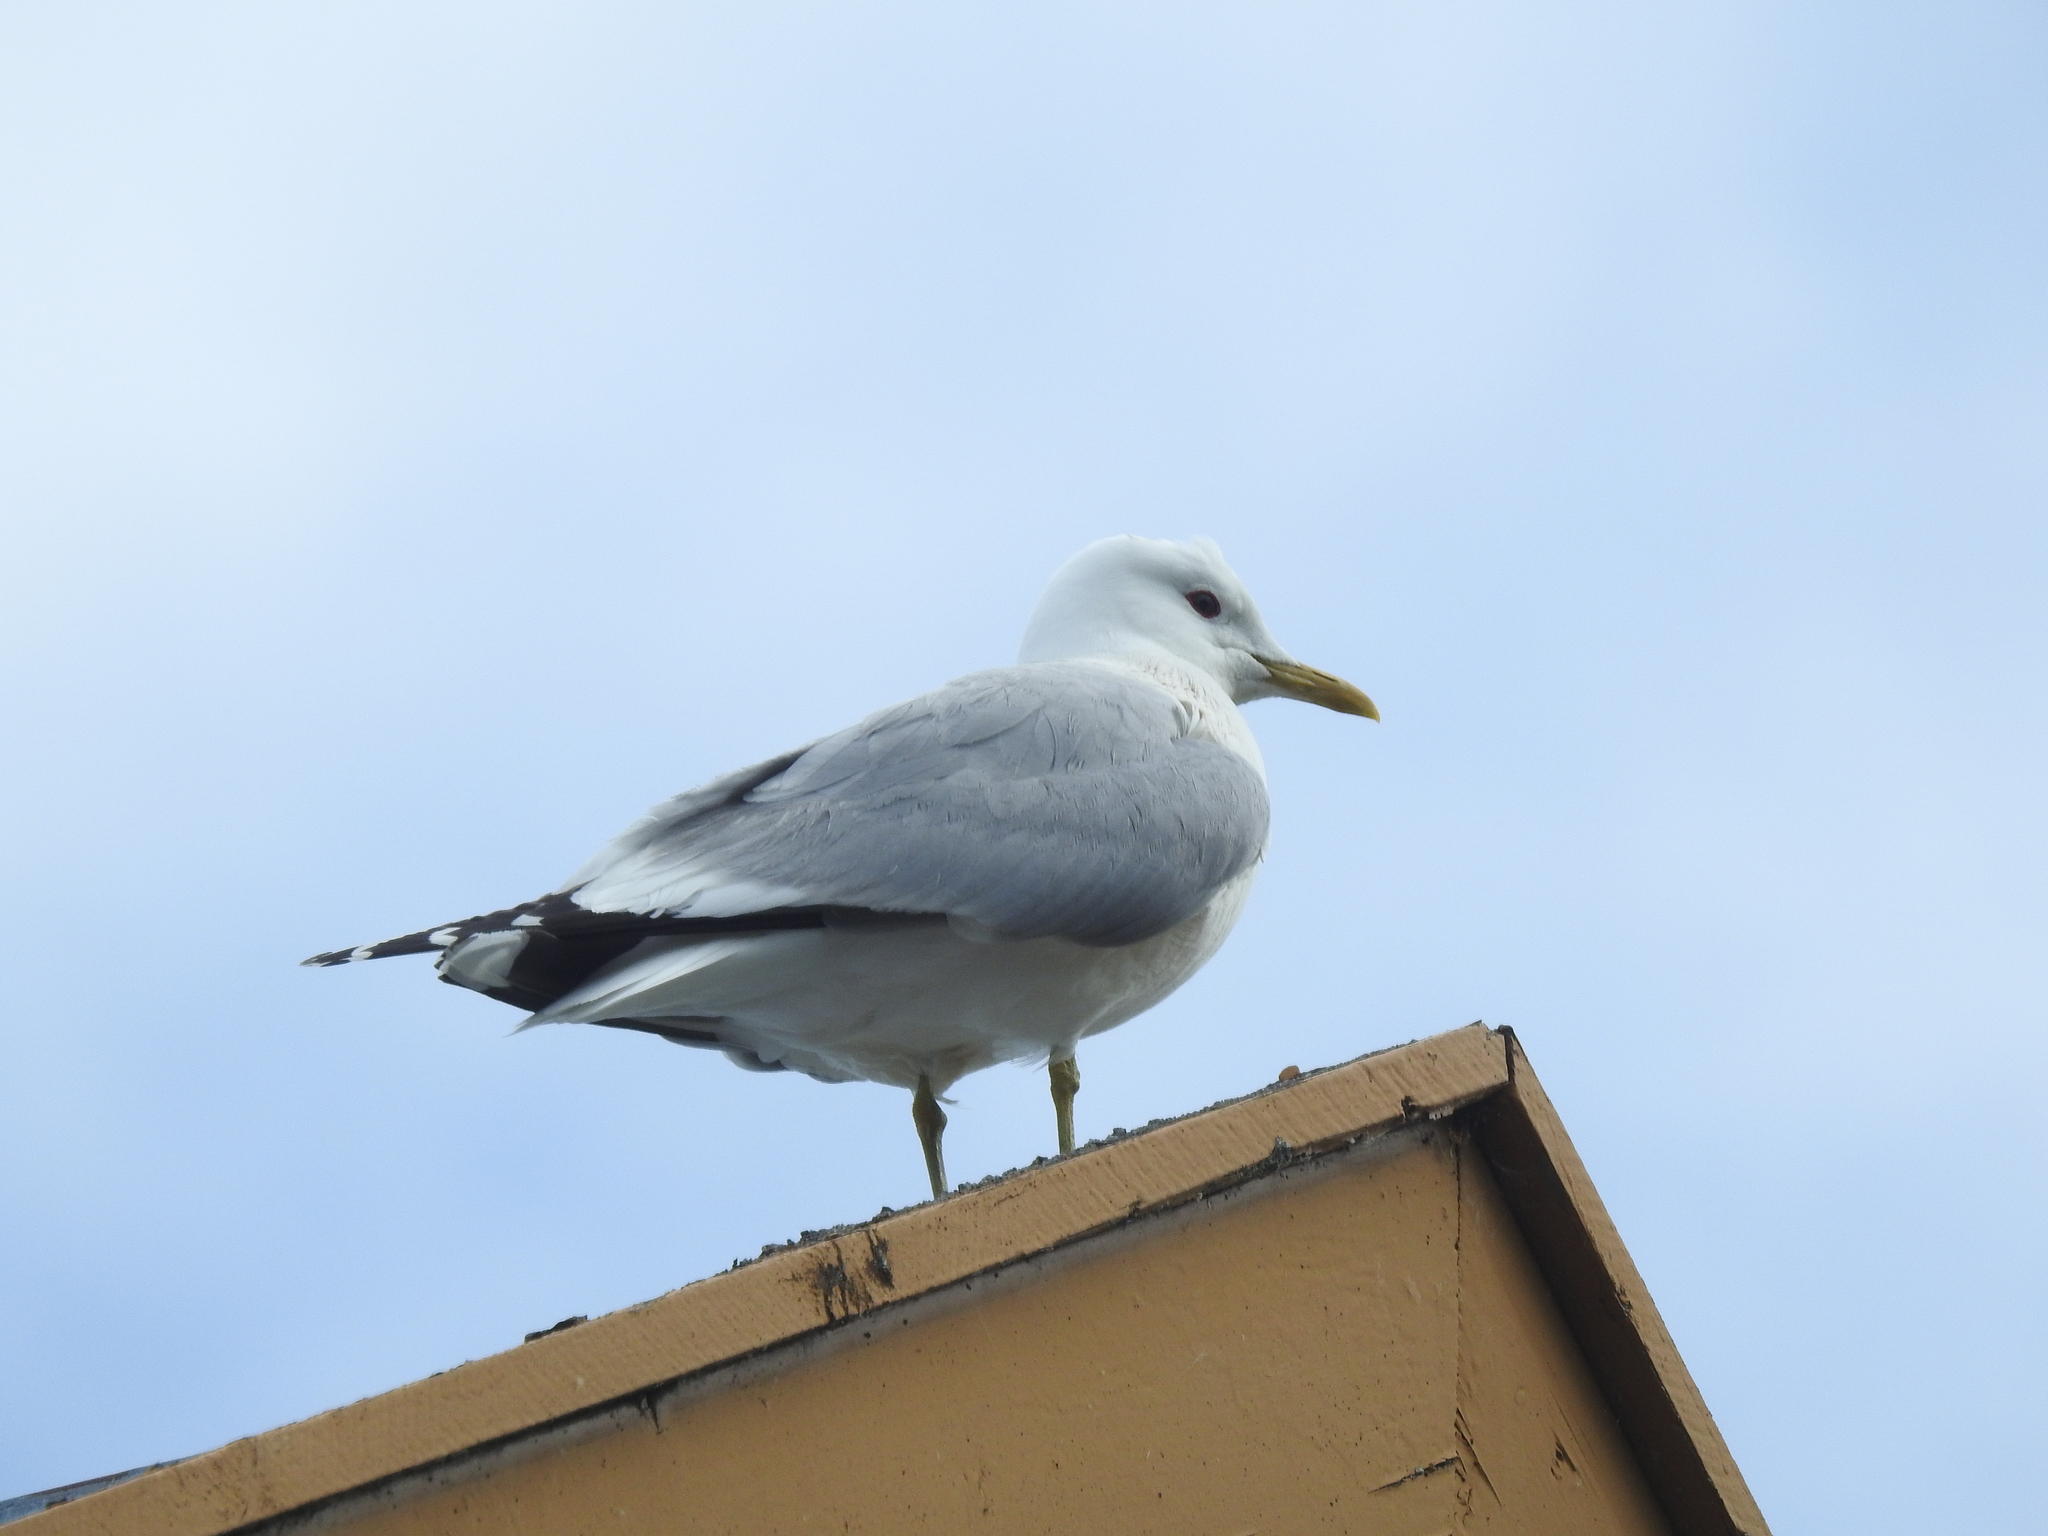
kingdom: Animalia
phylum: Chordata
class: Aves
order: Charadriiformes
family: Laridae
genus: Larus
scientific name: Larus canus
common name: Mew gull
